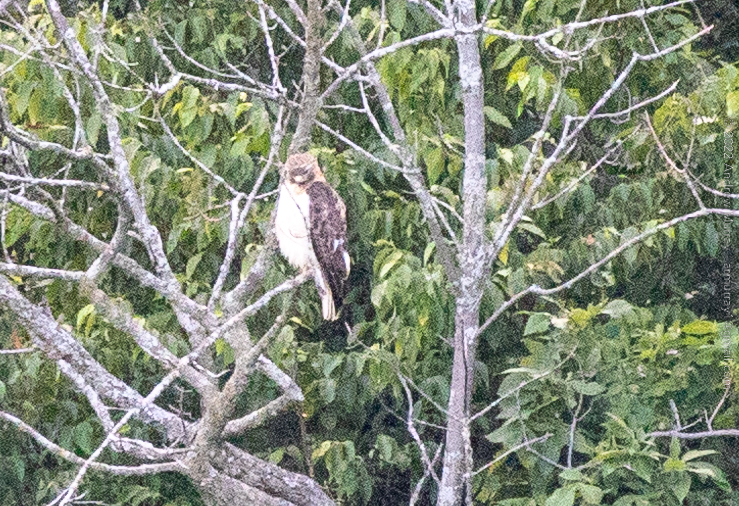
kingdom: Animalia
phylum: Chordata
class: Aves
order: Accipitriformes
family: Accipitridae
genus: Buteo
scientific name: Buteo jamaicensis
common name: Red-tailed hawk
